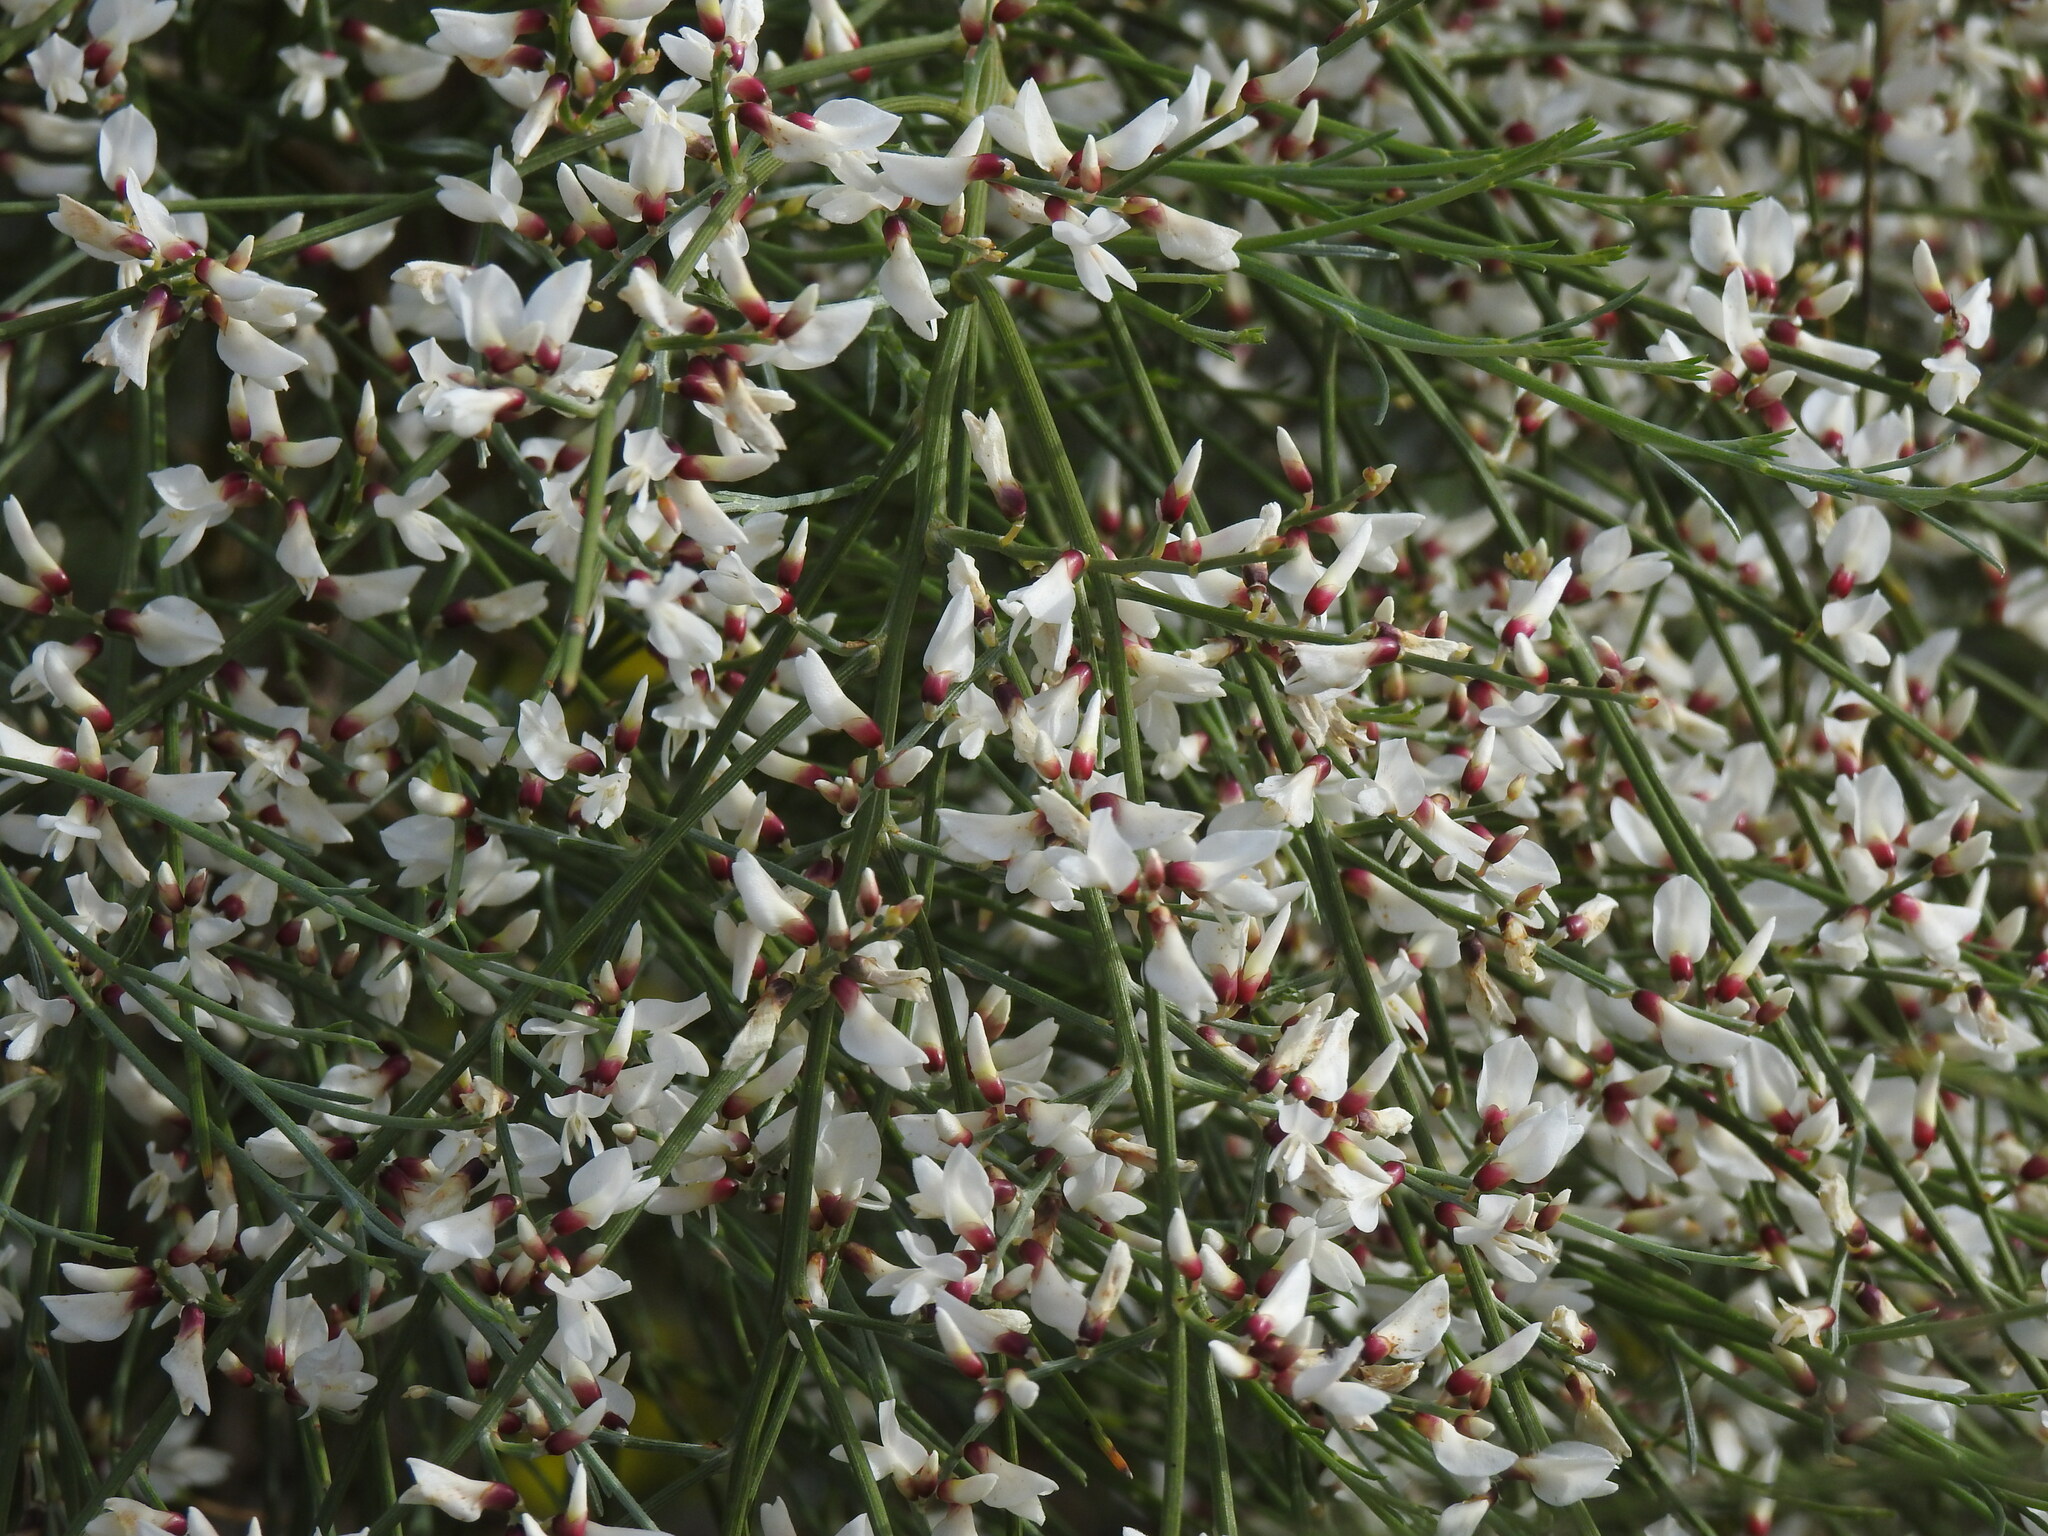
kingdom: Plantae
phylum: Tracheophyta
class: Magnoliopsida
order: Fabales
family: Fabaceae
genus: Retama
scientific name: Retama monosperma
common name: Bridal broom
